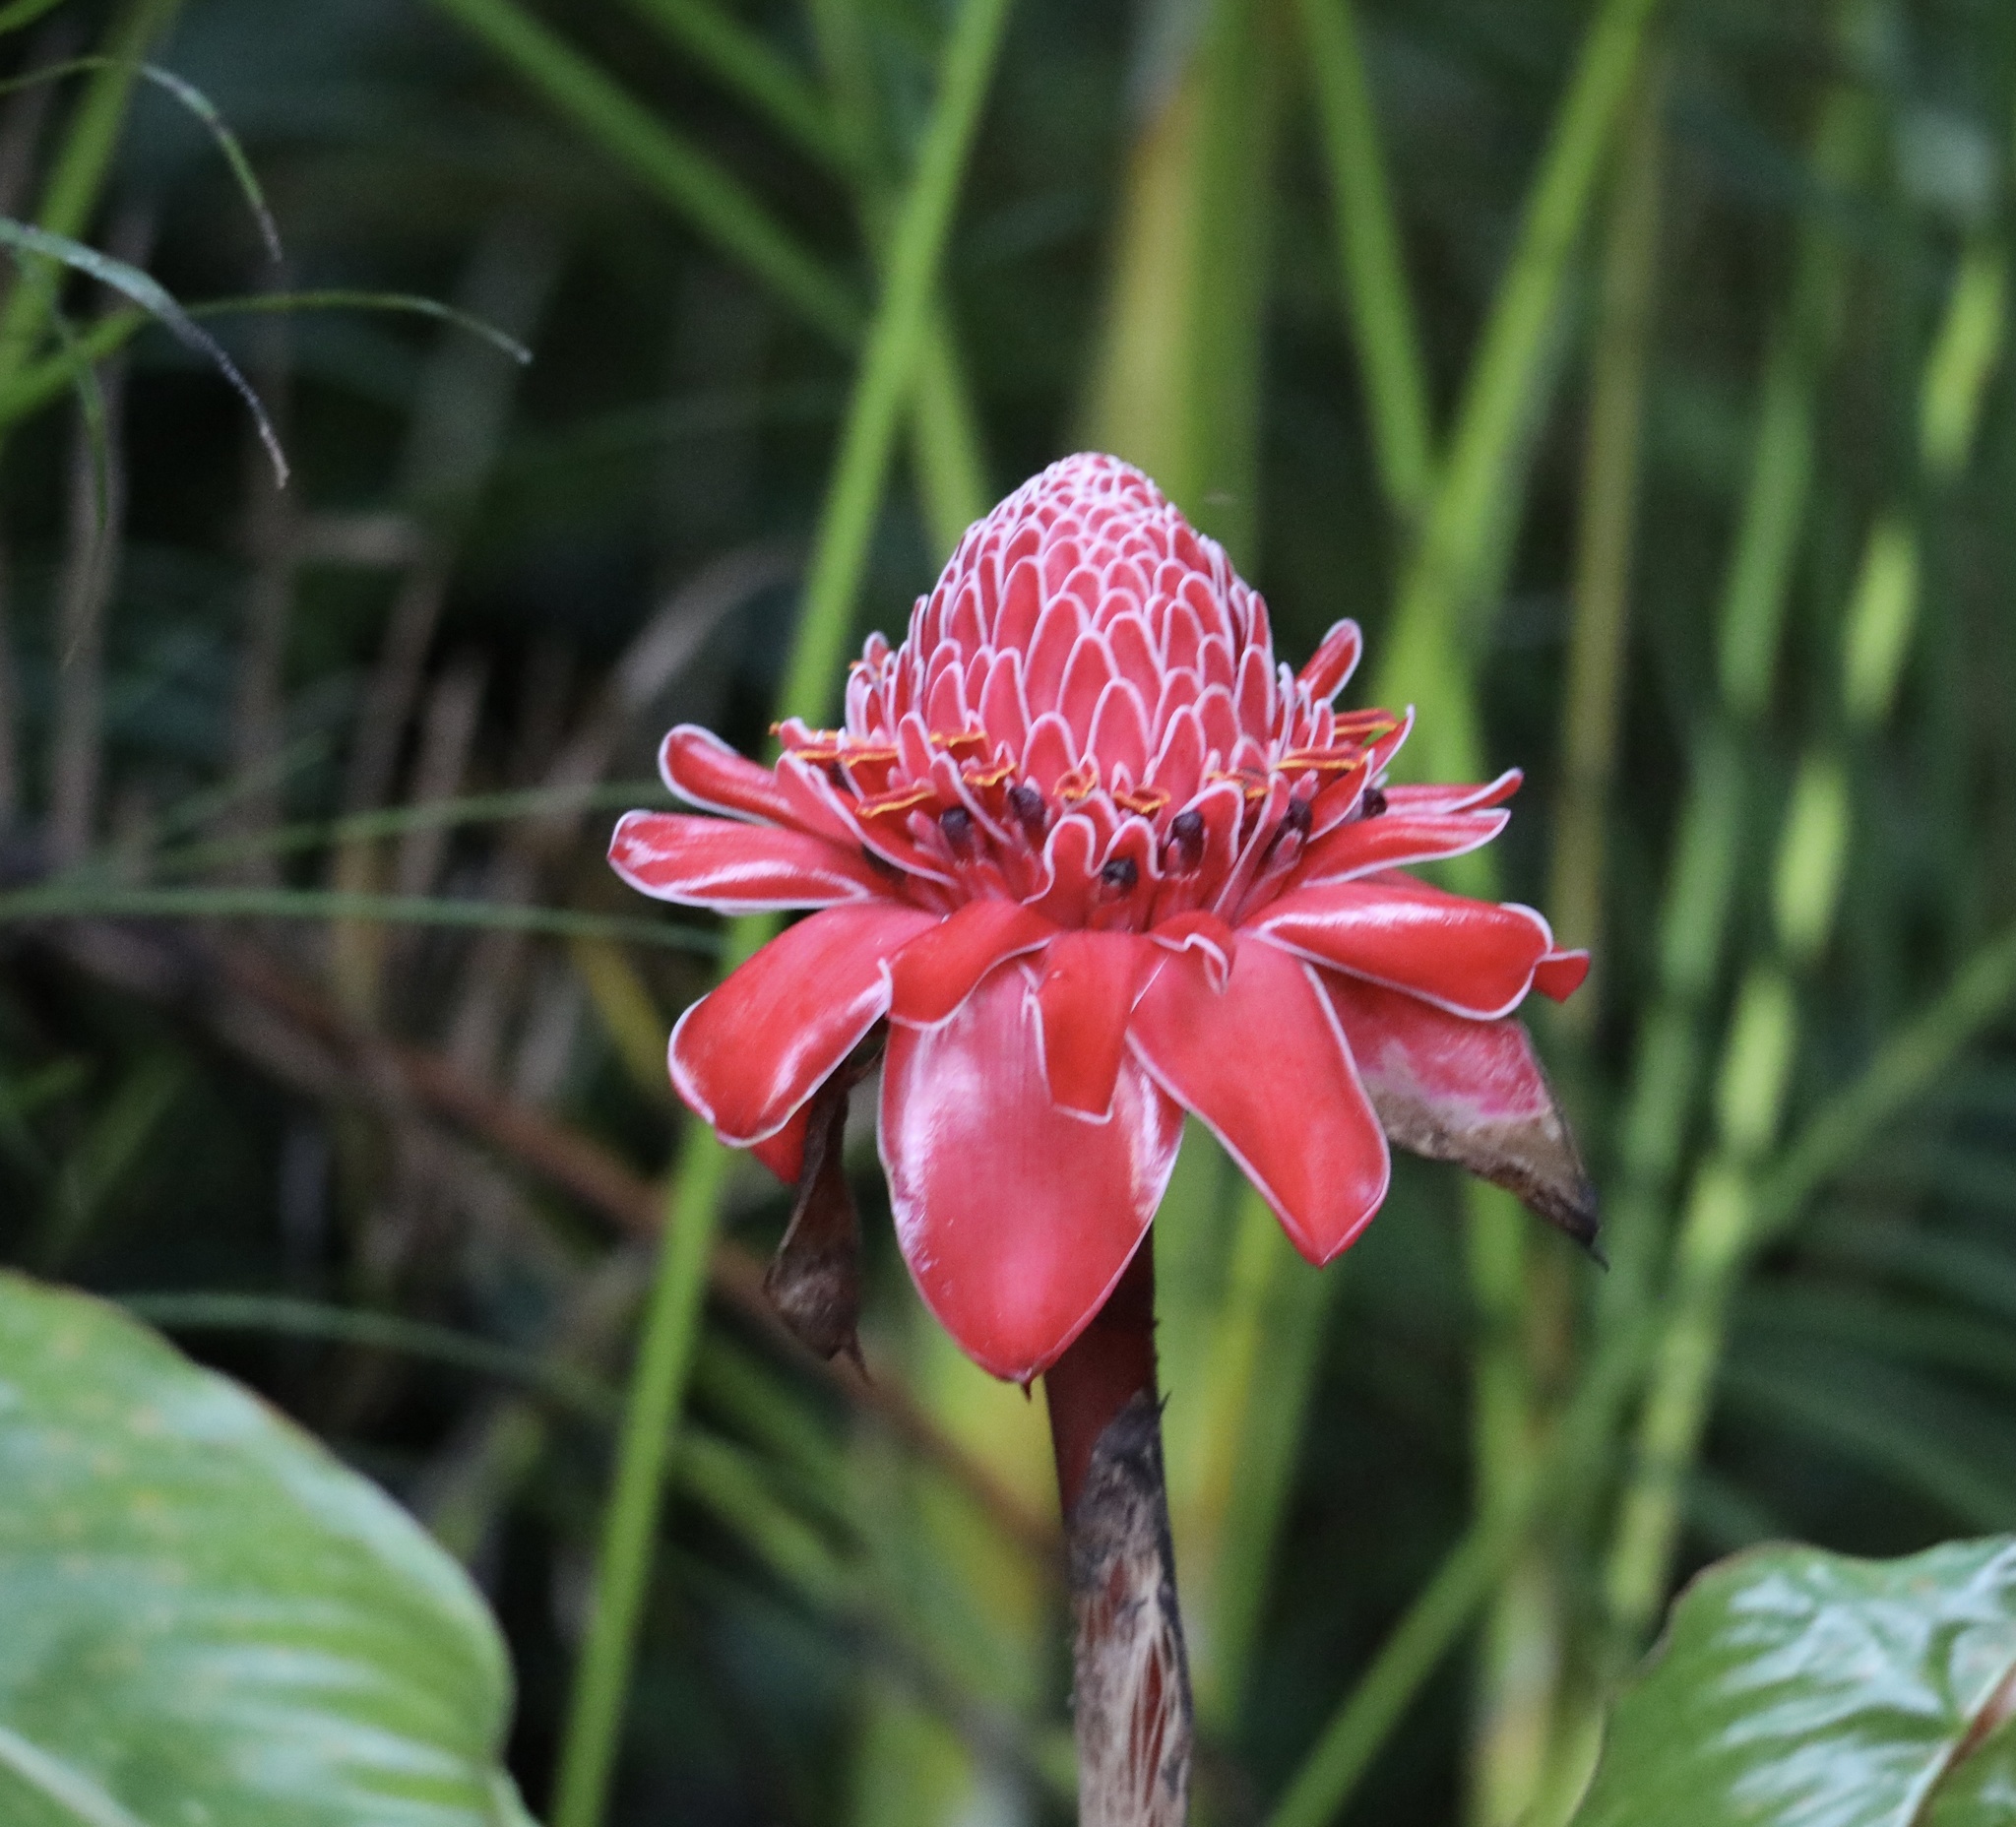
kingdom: Plantae
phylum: Tracheophyta
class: Liliopsida
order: Zingiberales
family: Zingiberaceae
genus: Etlingera
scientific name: Etlingera elatior
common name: Philippine waxflower
